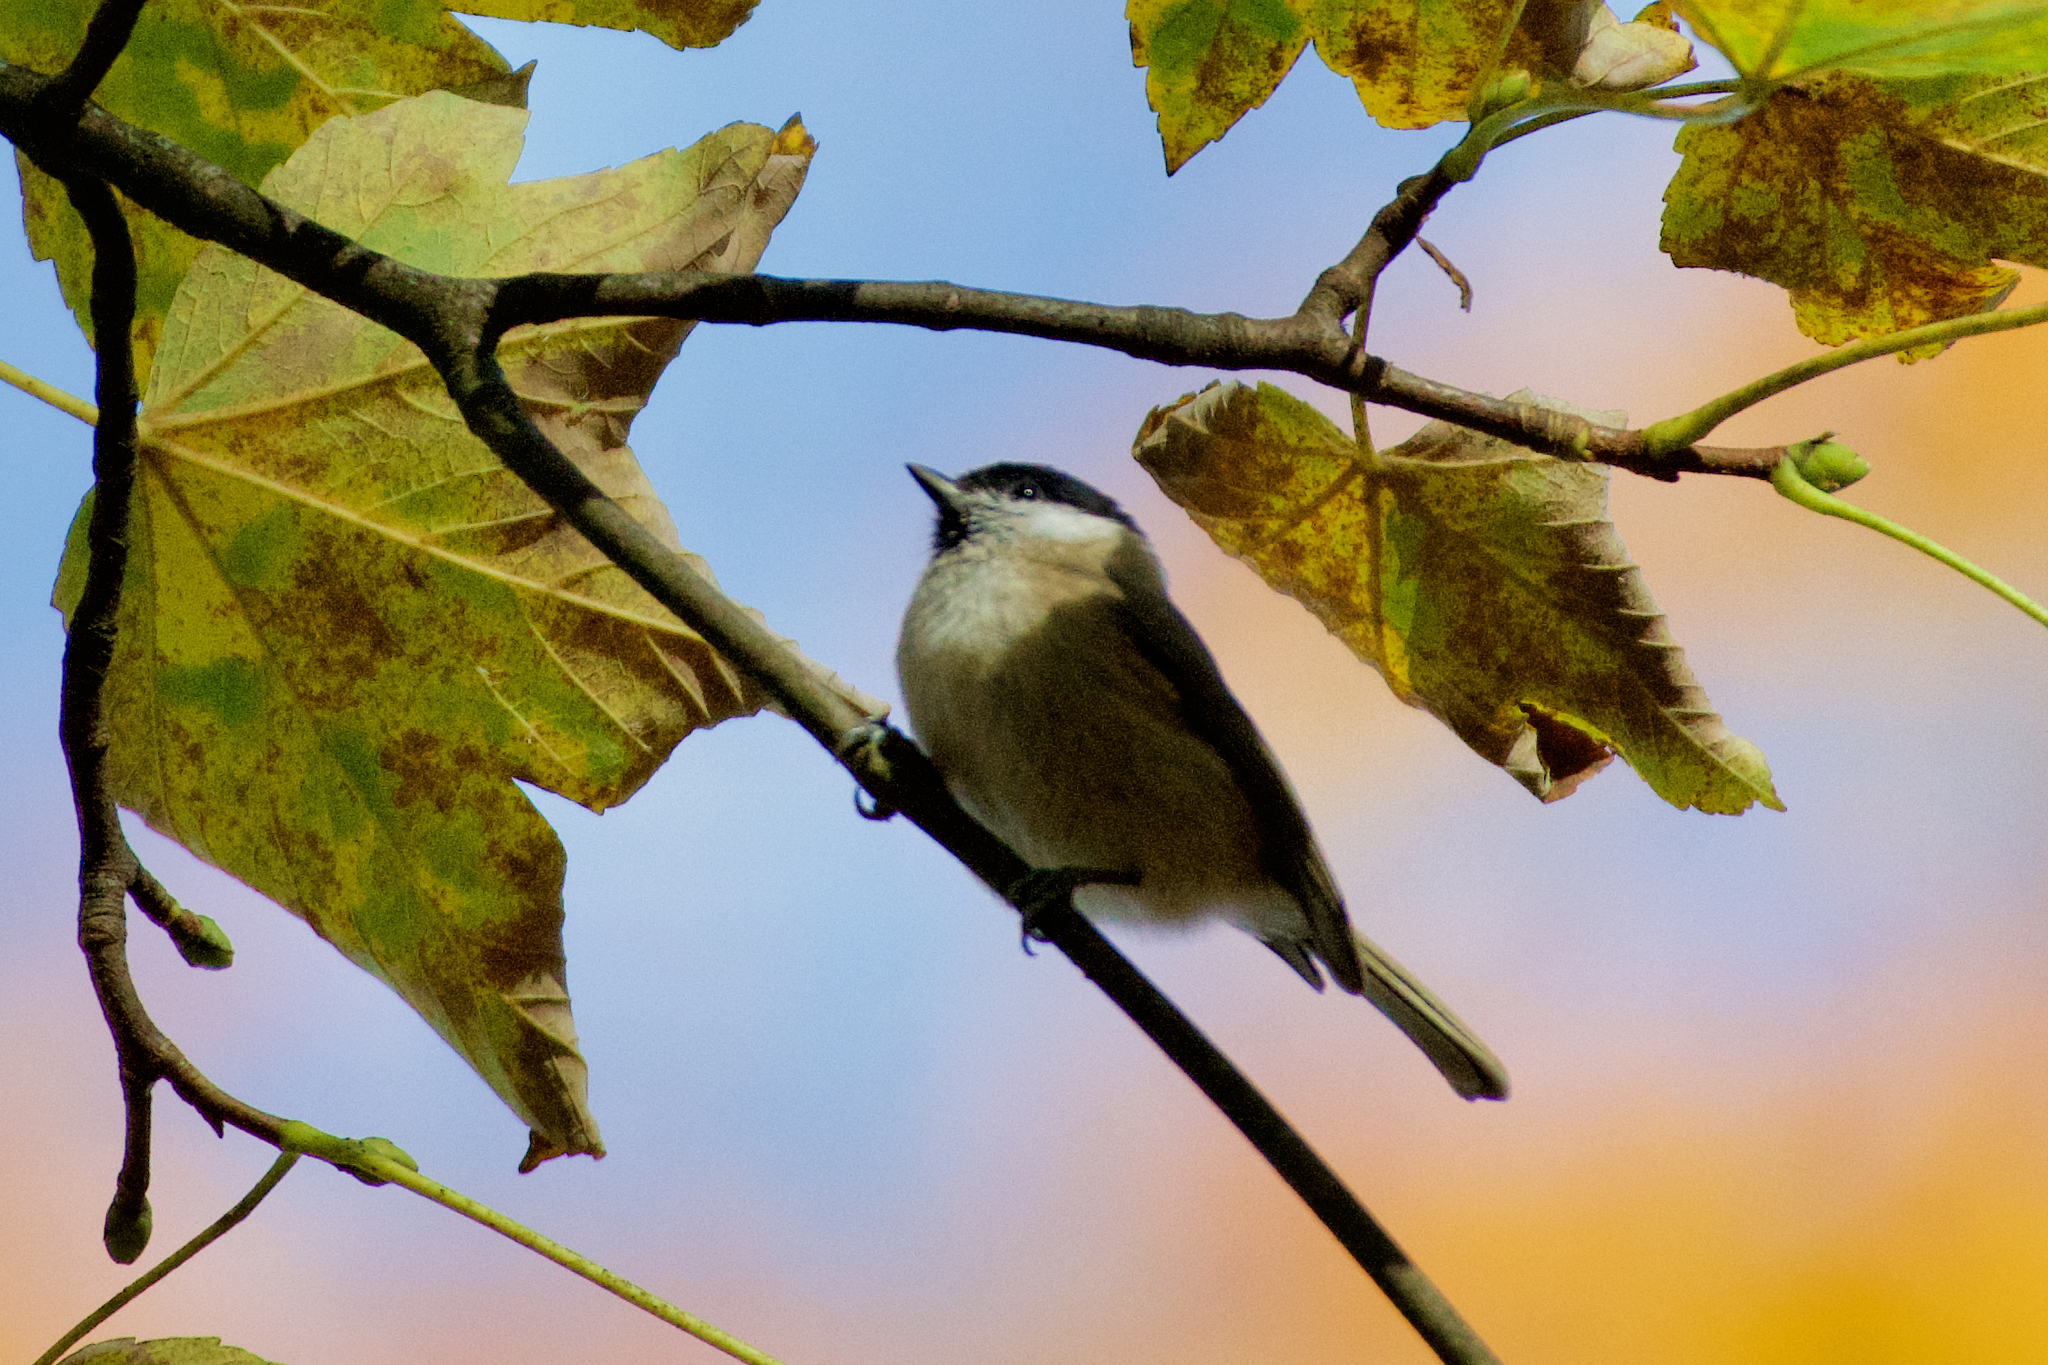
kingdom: Animalia
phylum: Chordata
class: Aves
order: Passeriformes
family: Paridae
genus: Poecile
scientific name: Poecile palustris
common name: Marsh tit
